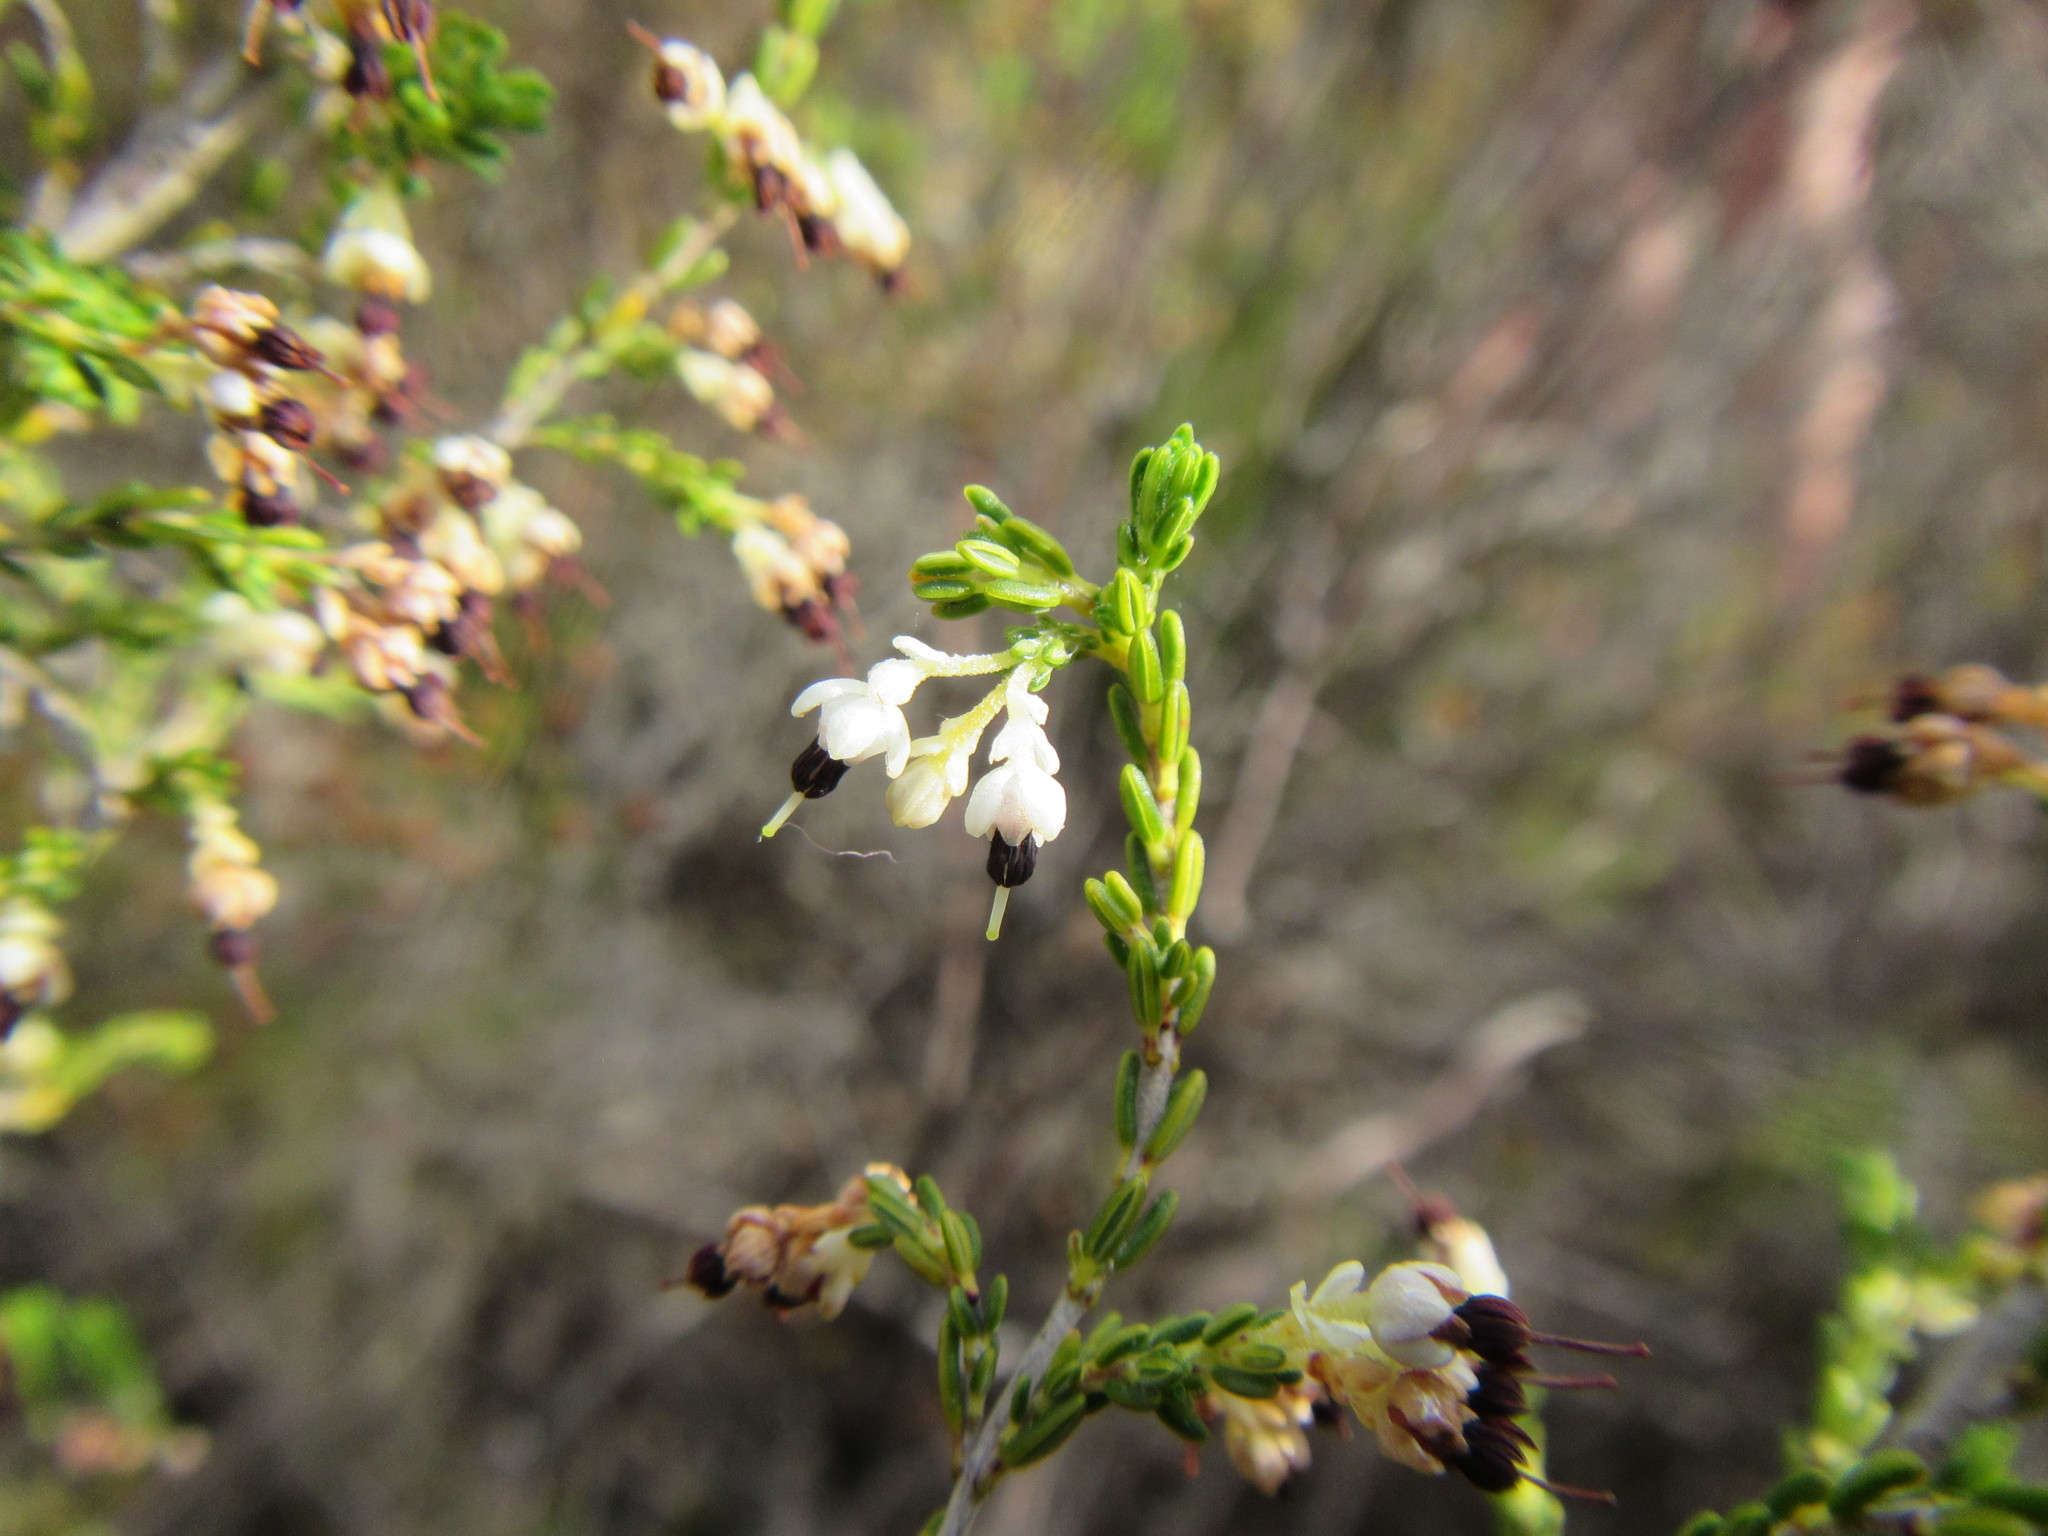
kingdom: Plantae
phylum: Tracheophyta
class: Magnoliopsida
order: Ericales
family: Ericaceae
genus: Erica
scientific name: Erica suffulta
